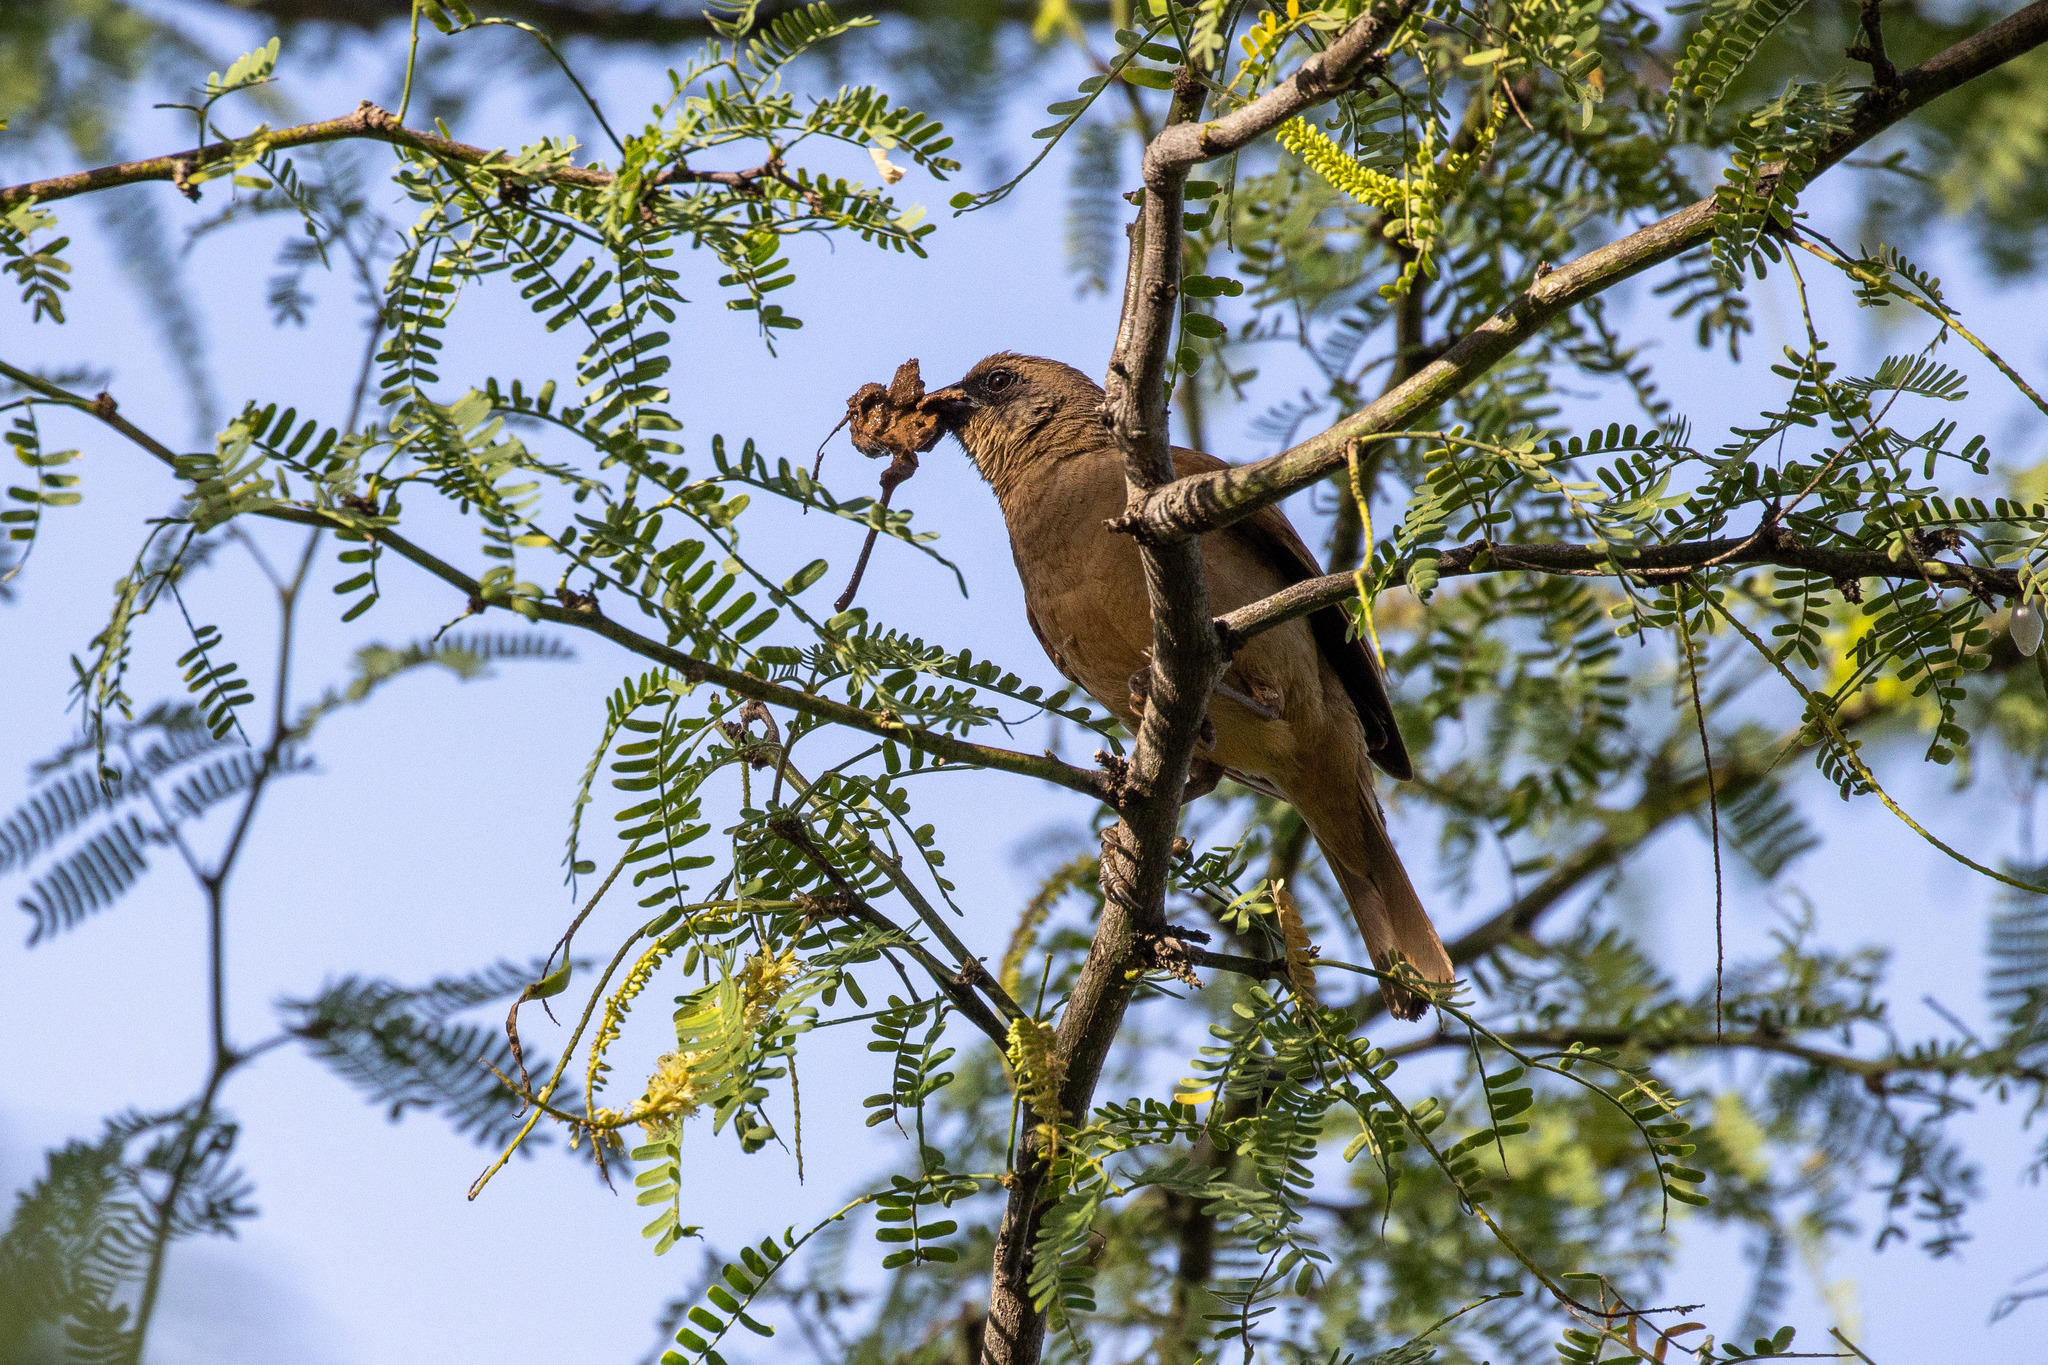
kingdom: Animalia
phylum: Chordata
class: Aves
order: Passeriformes
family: Icteridae
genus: Agelaioides
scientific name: Agelaioides badius
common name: Baywing
